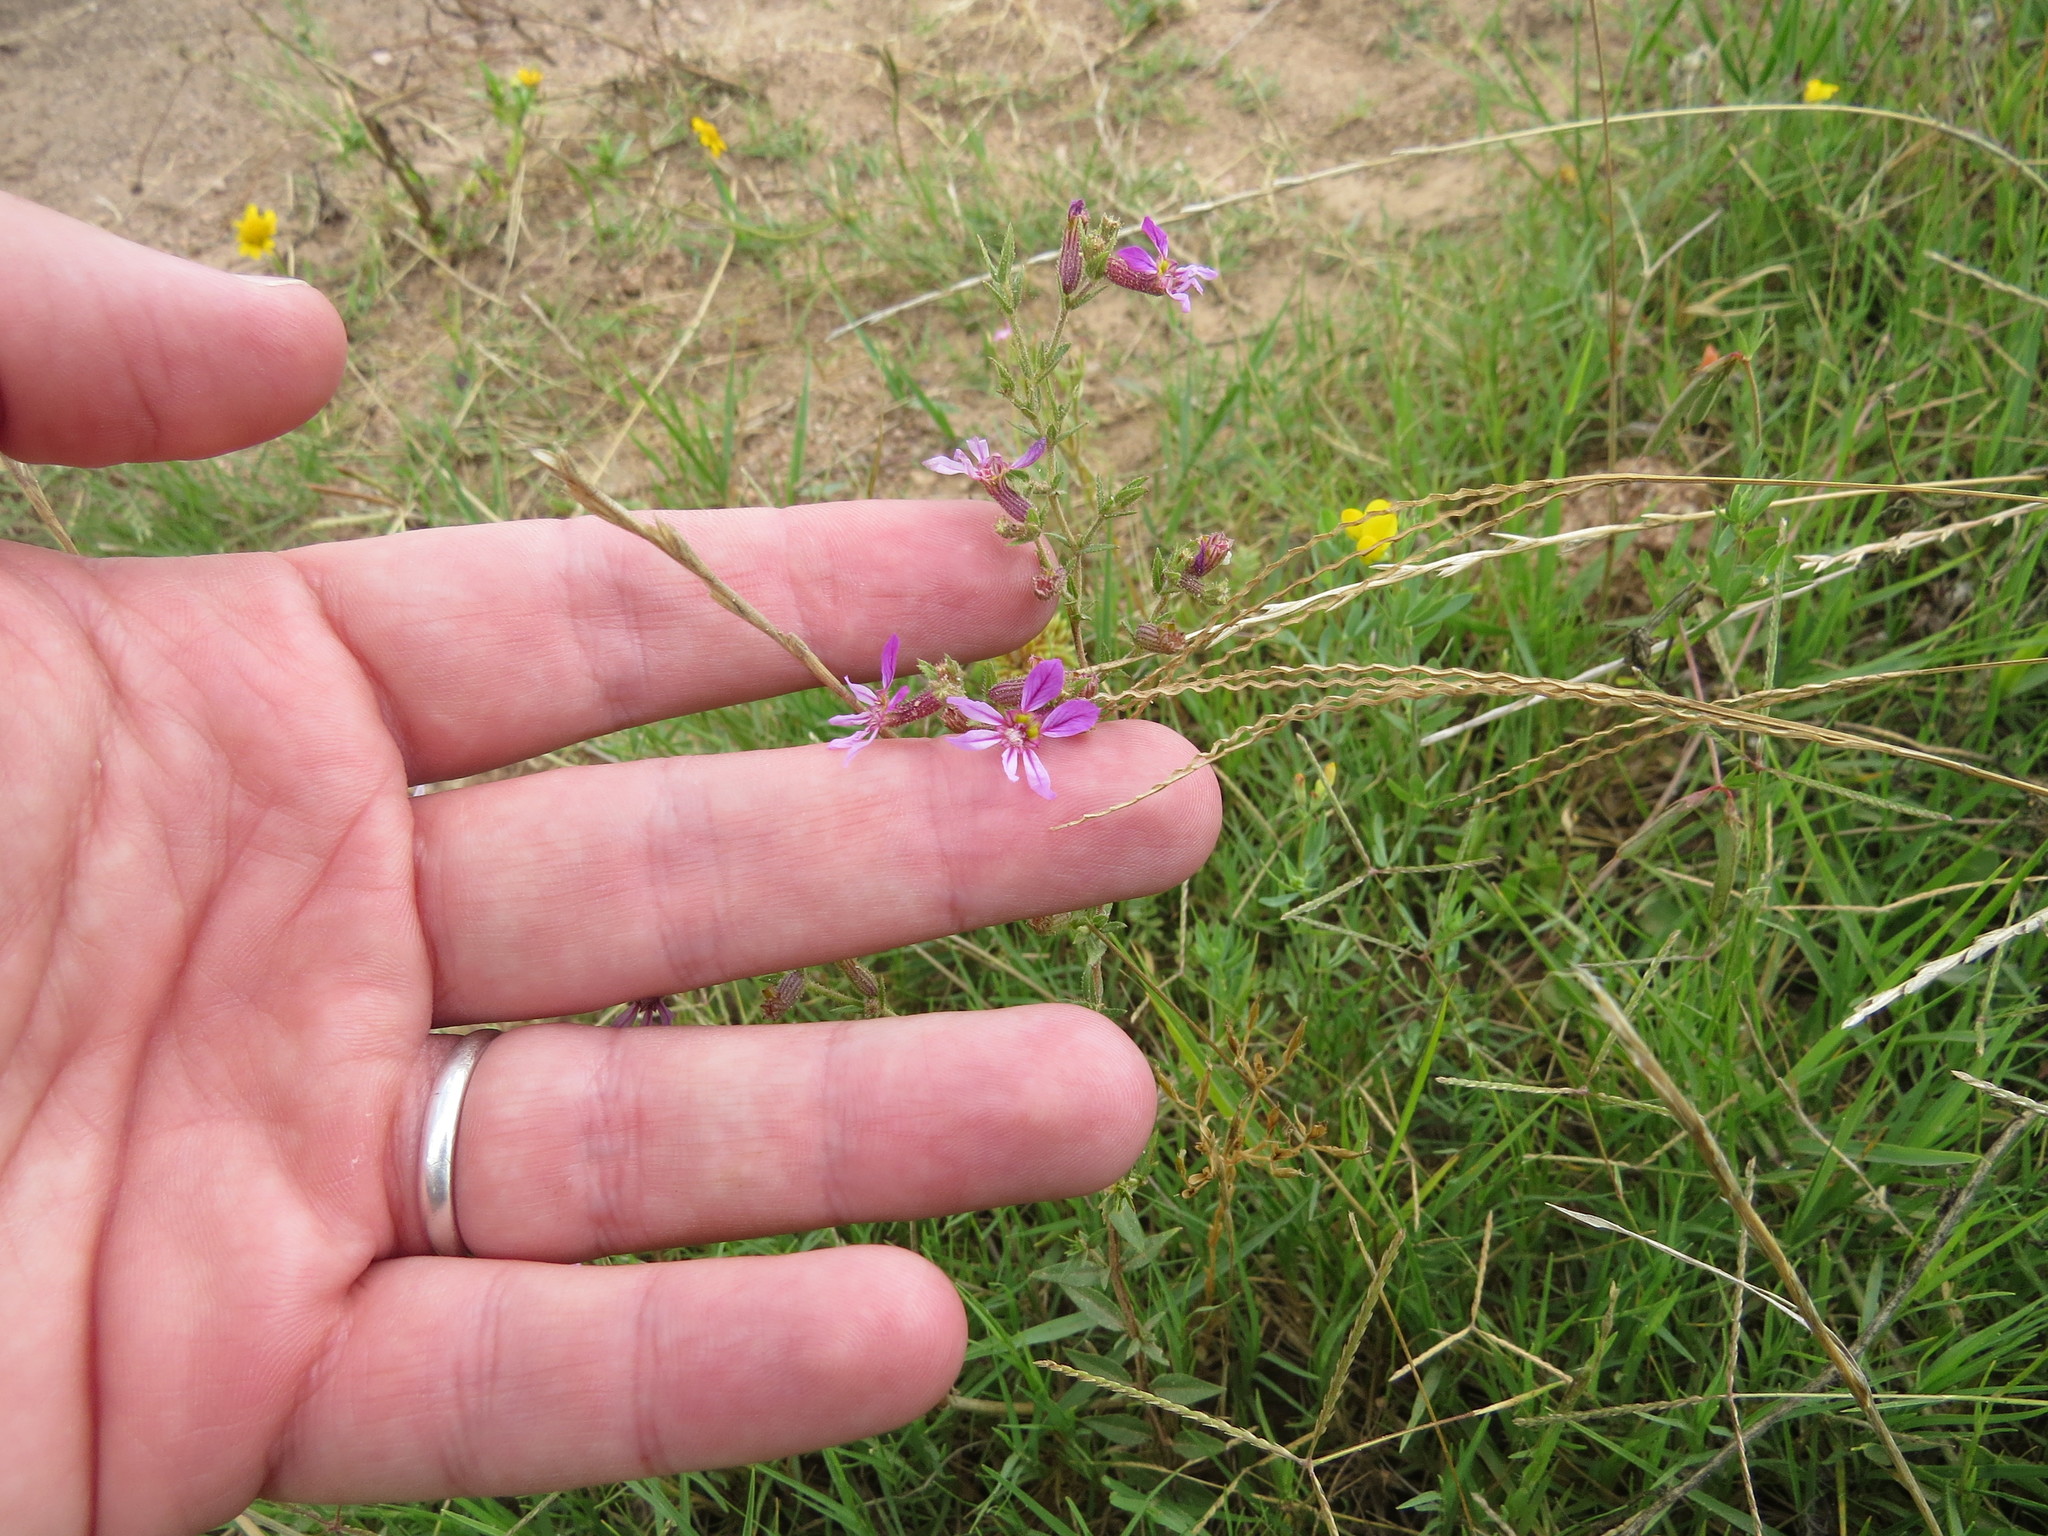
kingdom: Plantae
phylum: Tracheophyta
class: Magnoliopsida
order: Myrtales
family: Lythraceae
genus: Cuphea
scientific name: Cuphea glutinosa
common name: Sticky waxweed
